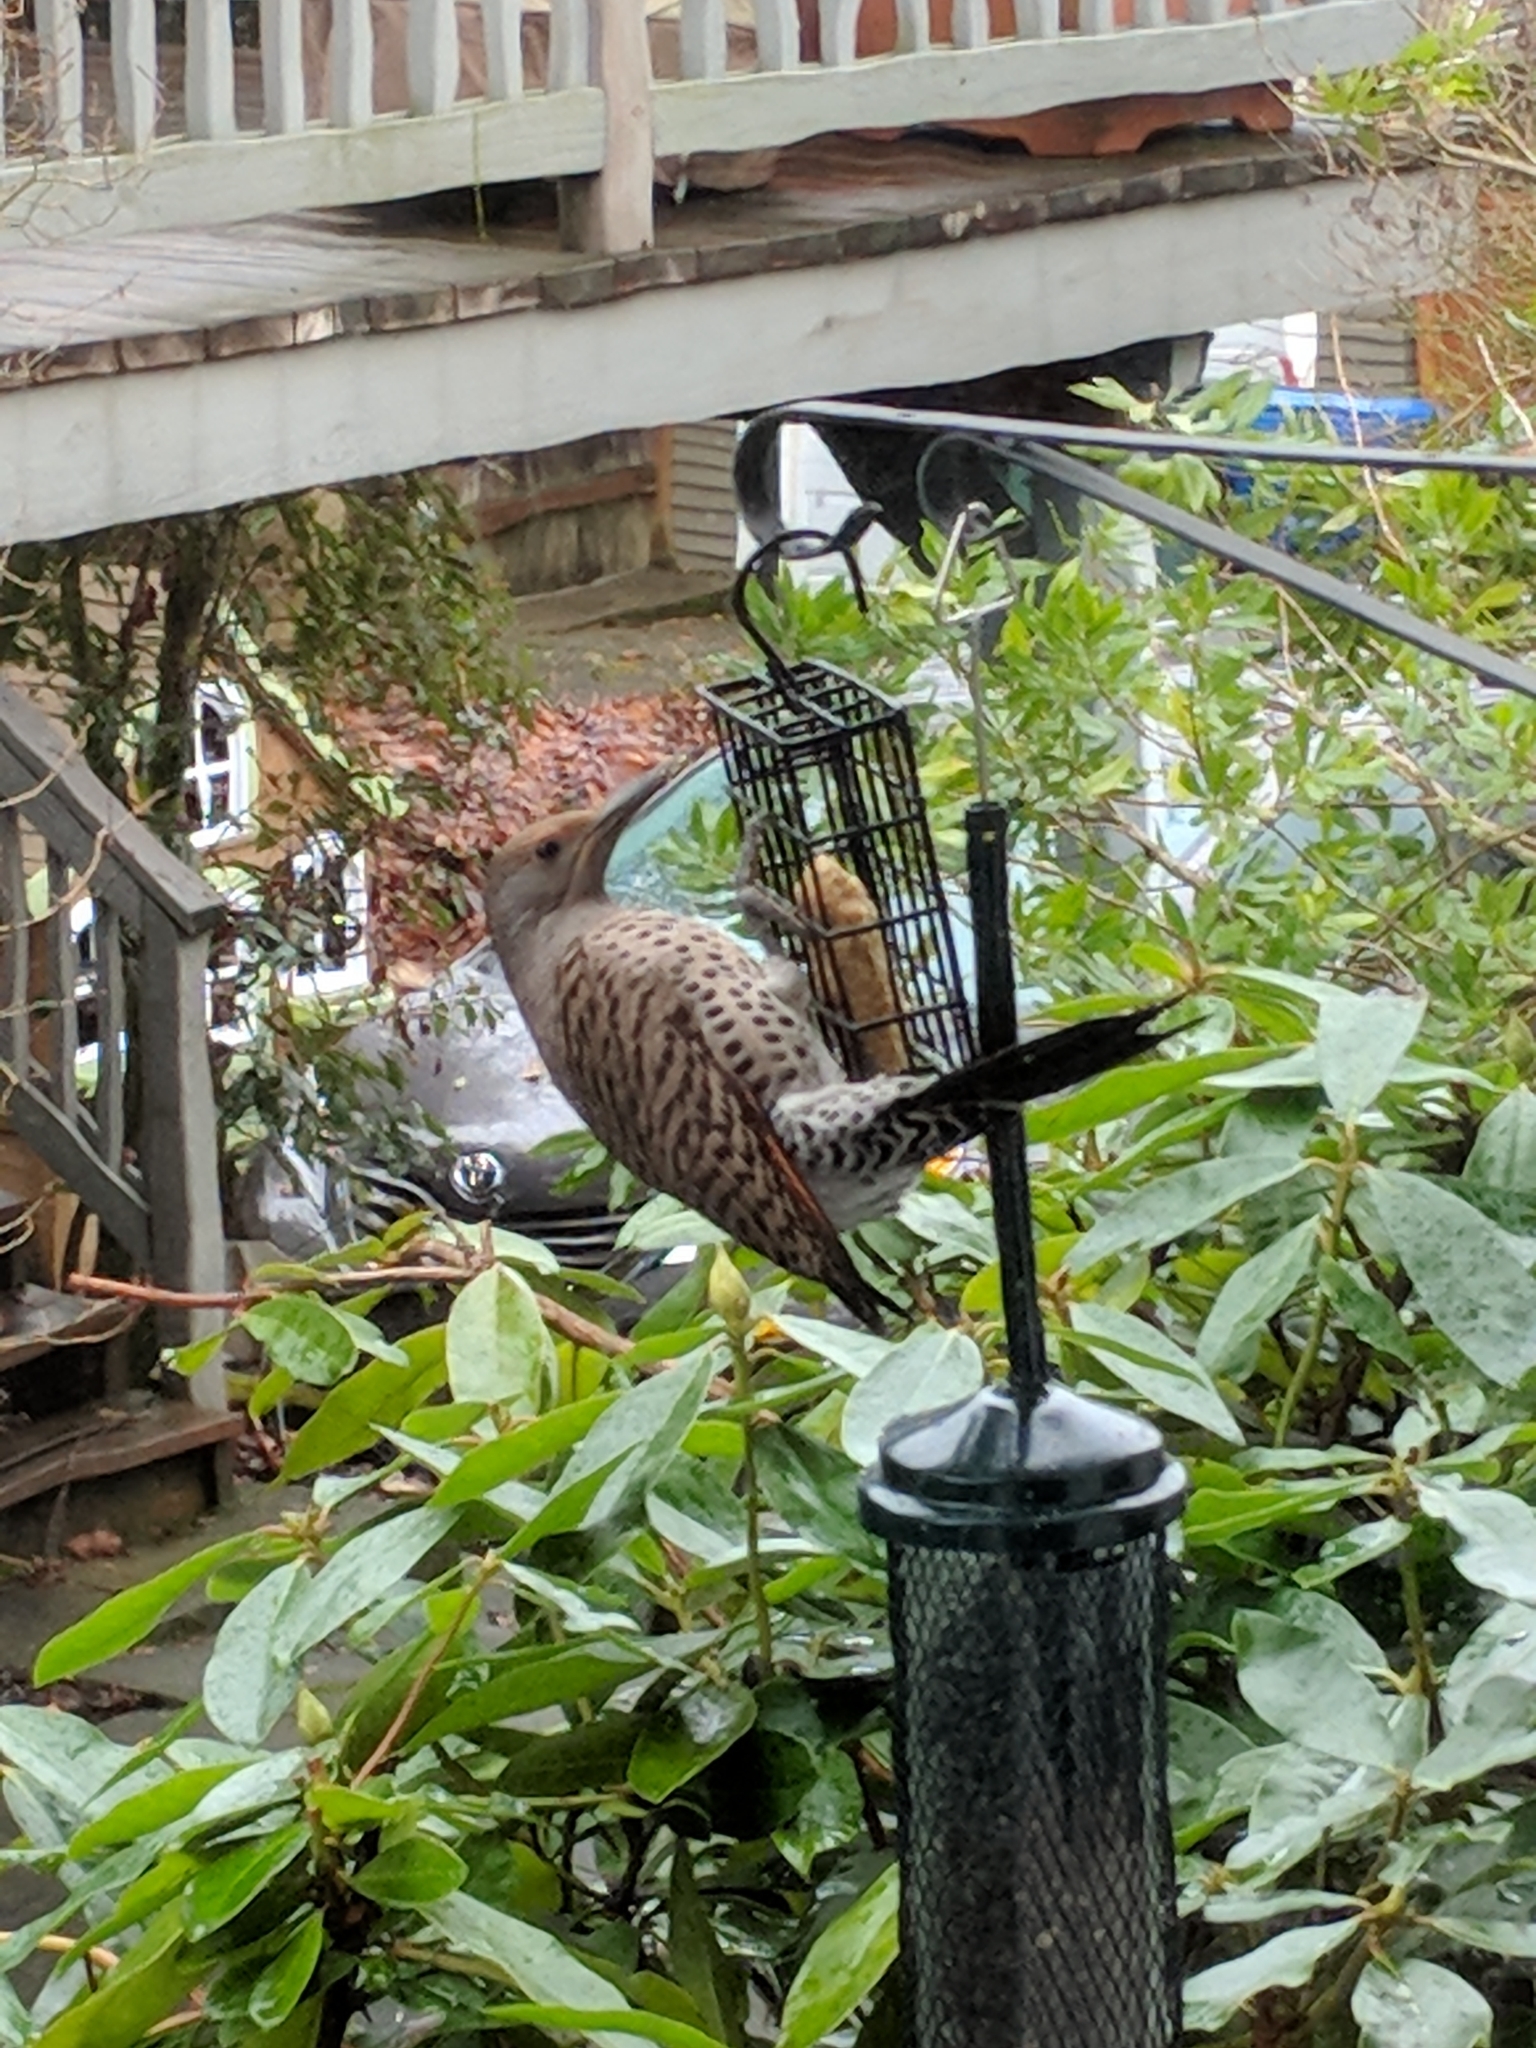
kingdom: Animalia
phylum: Chordata
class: Aves
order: Piciformes
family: Picidae
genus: Colaptes
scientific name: Colaptes auratus
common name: Northern flicker
